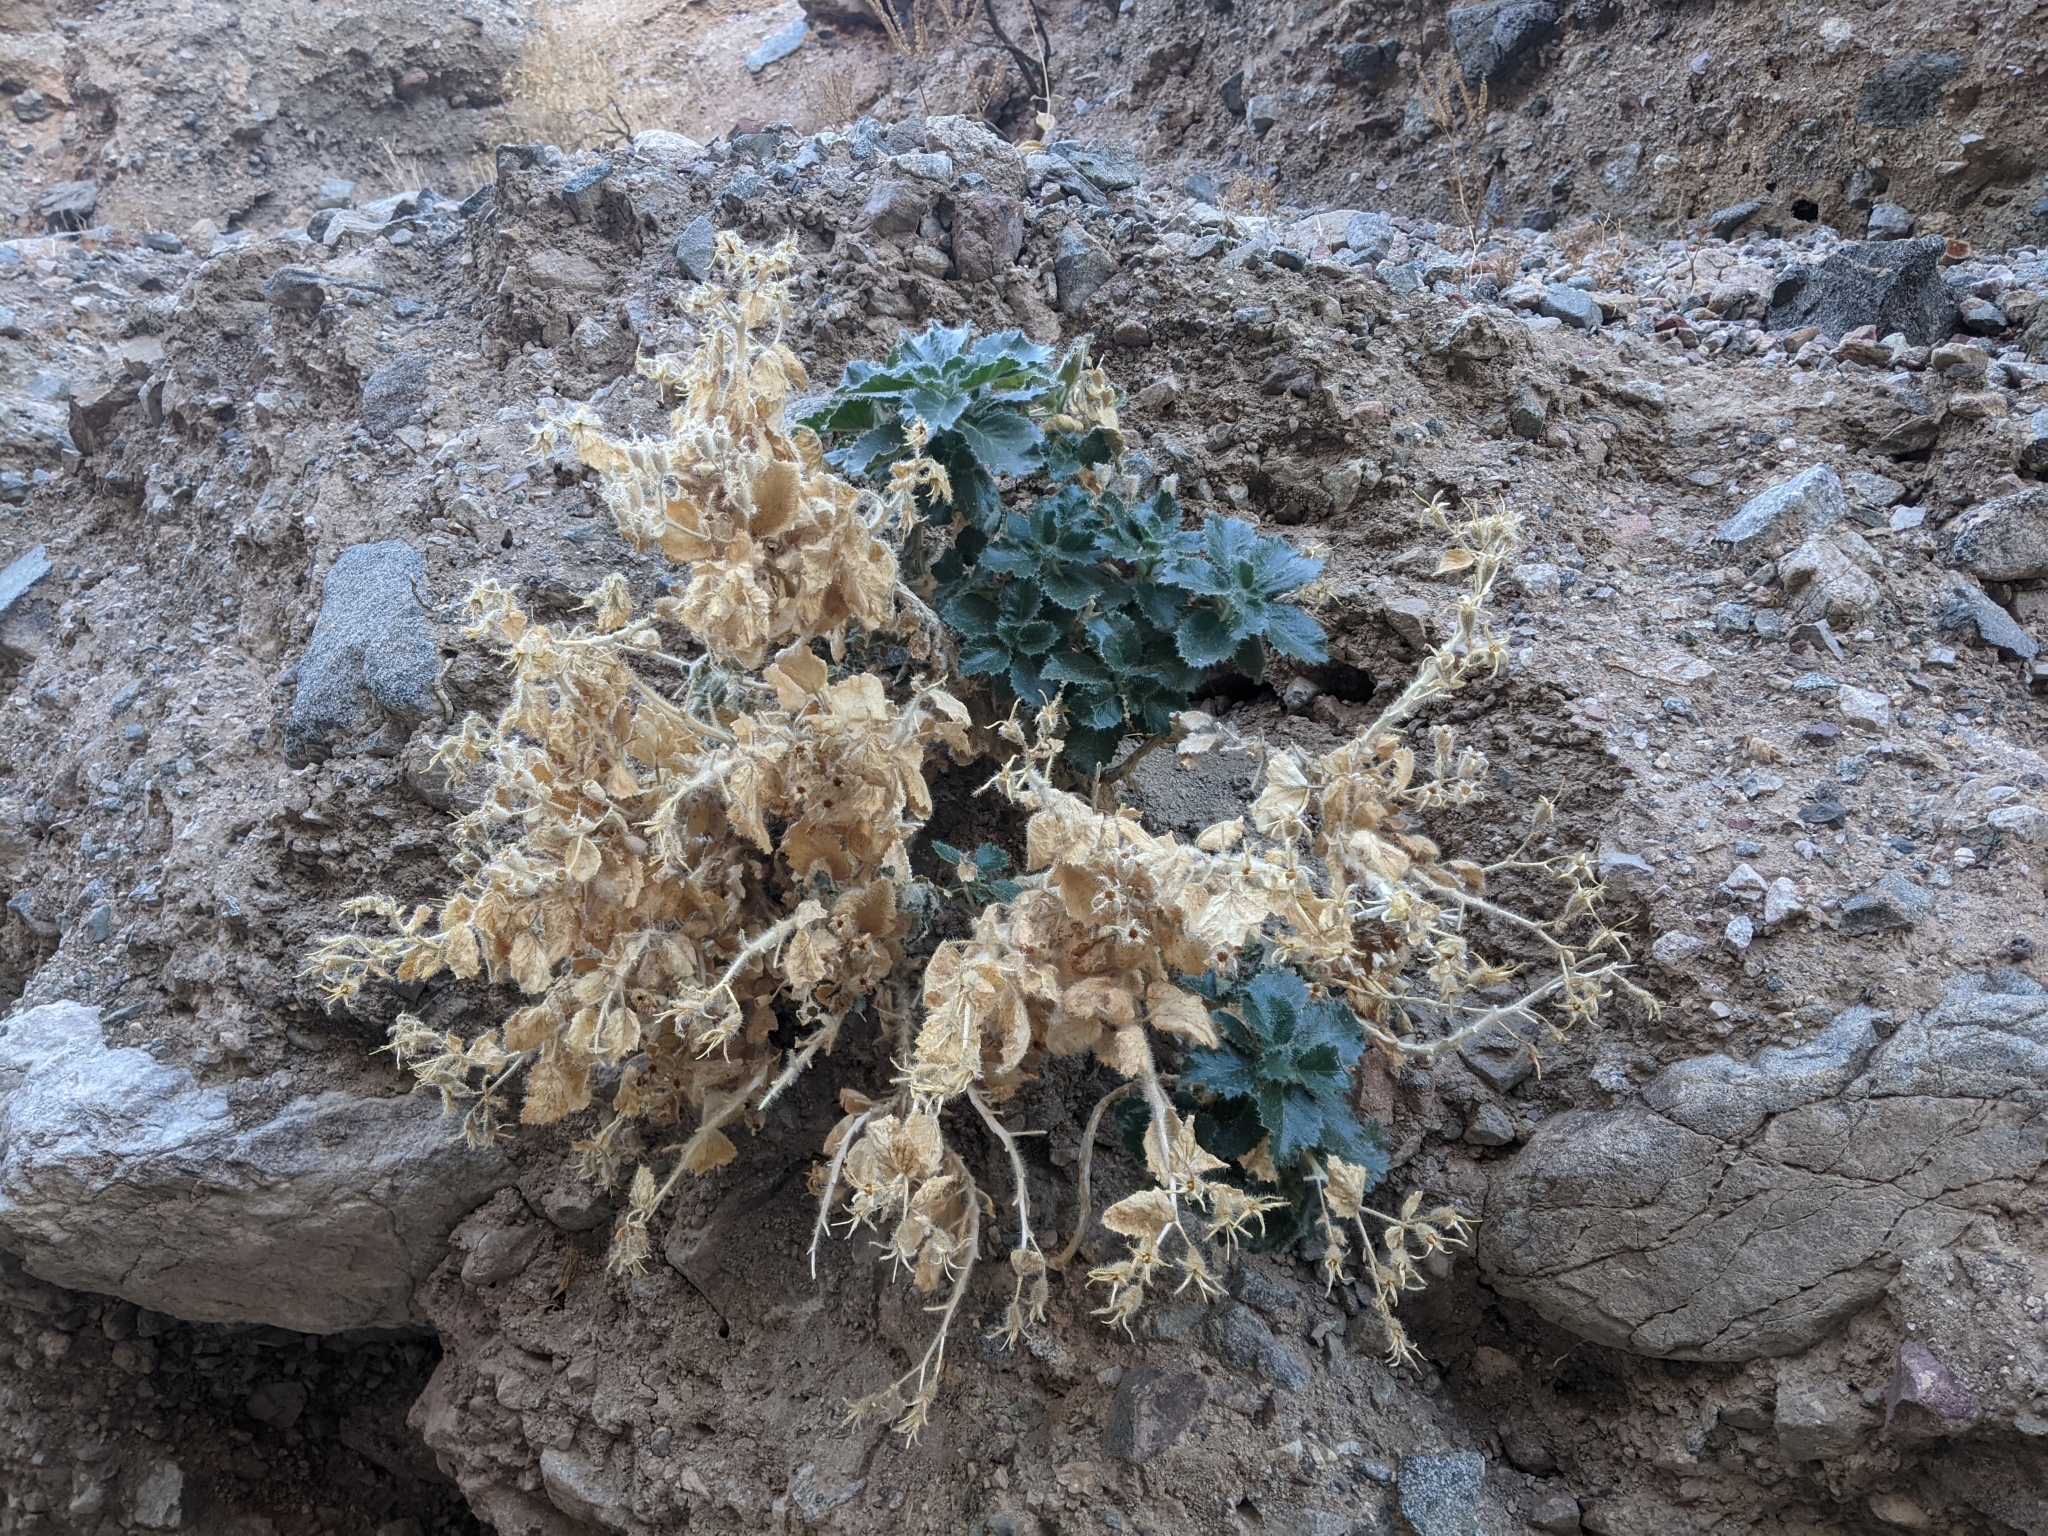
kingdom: Plantae
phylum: Tracheophyta
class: Magnoliopsida
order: Cornales
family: Loasaceae
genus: Eucnide
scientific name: Eucnide urens
